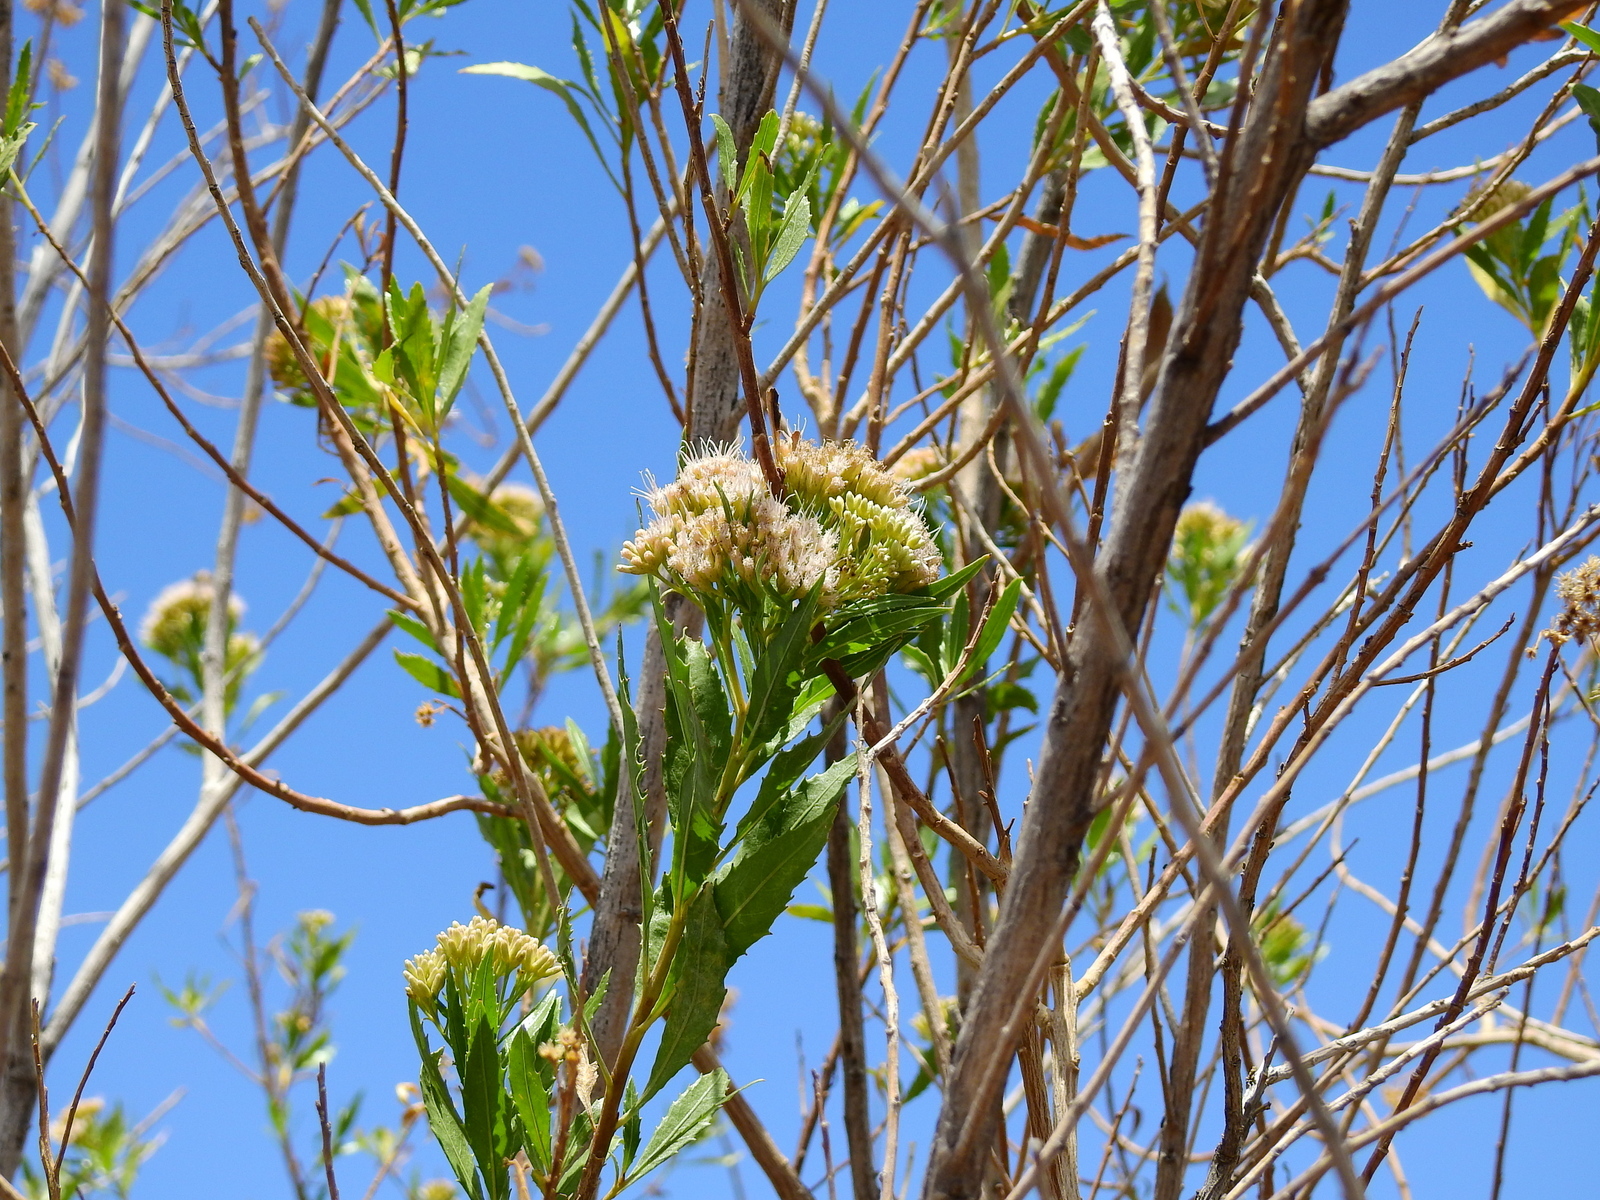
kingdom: Plantae
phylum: Tracheophyta
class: Magnoliopsida
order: Asterales
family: Asteraceae
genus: Tessaria
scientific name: Tessaria dodonaeifolia
